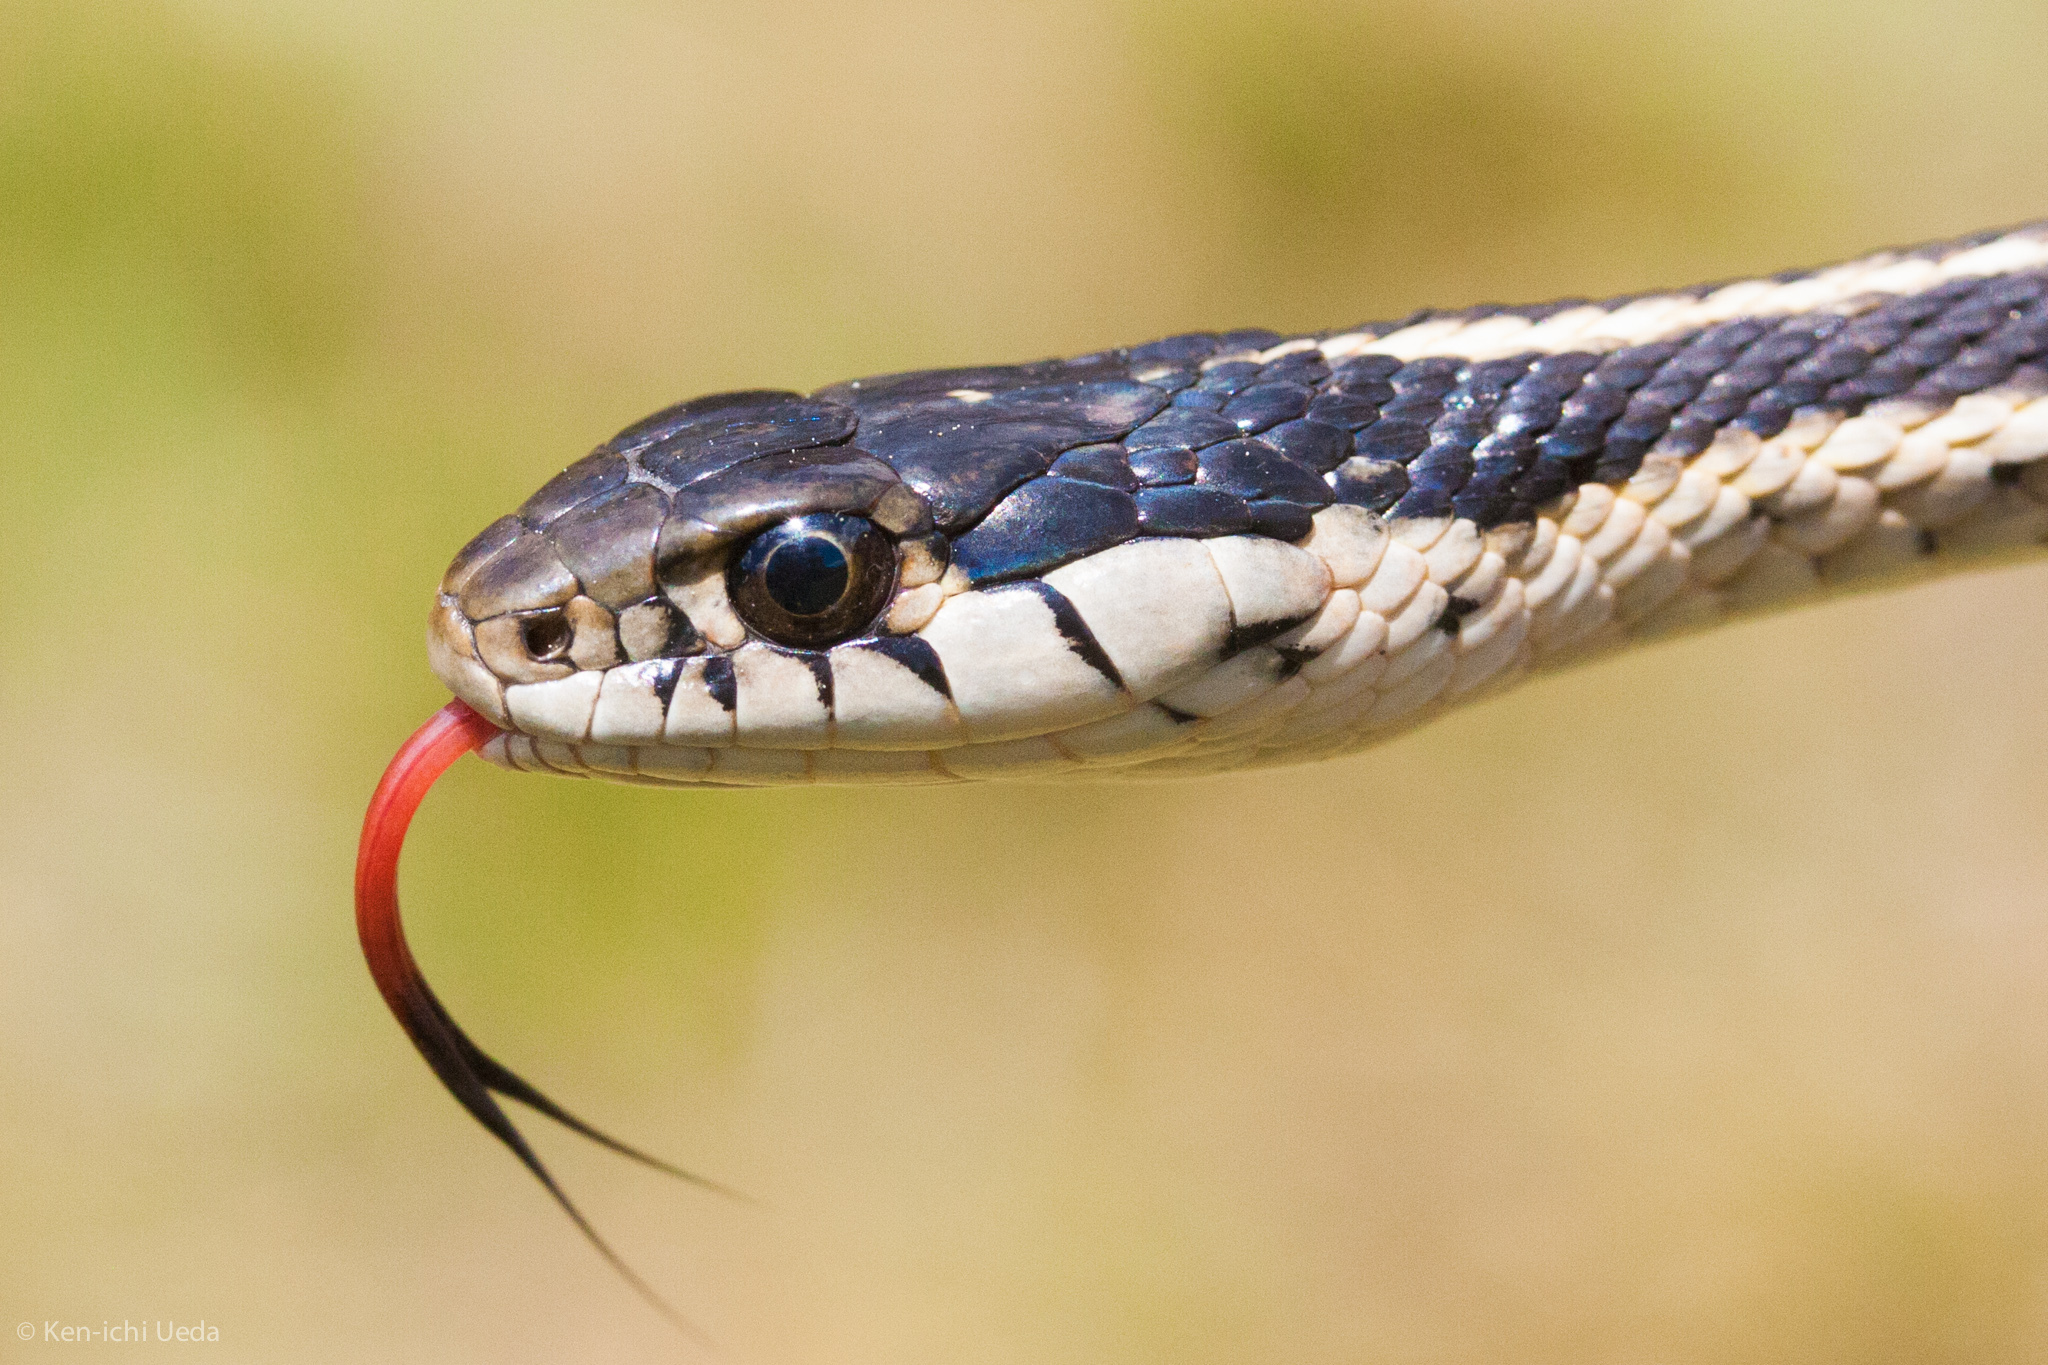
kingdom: Animalia
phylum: Chordata
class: Squamata
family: Colubridae
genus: Thamnophis
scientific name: Thamnophis elegans
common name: Western terrestrial garter snake
